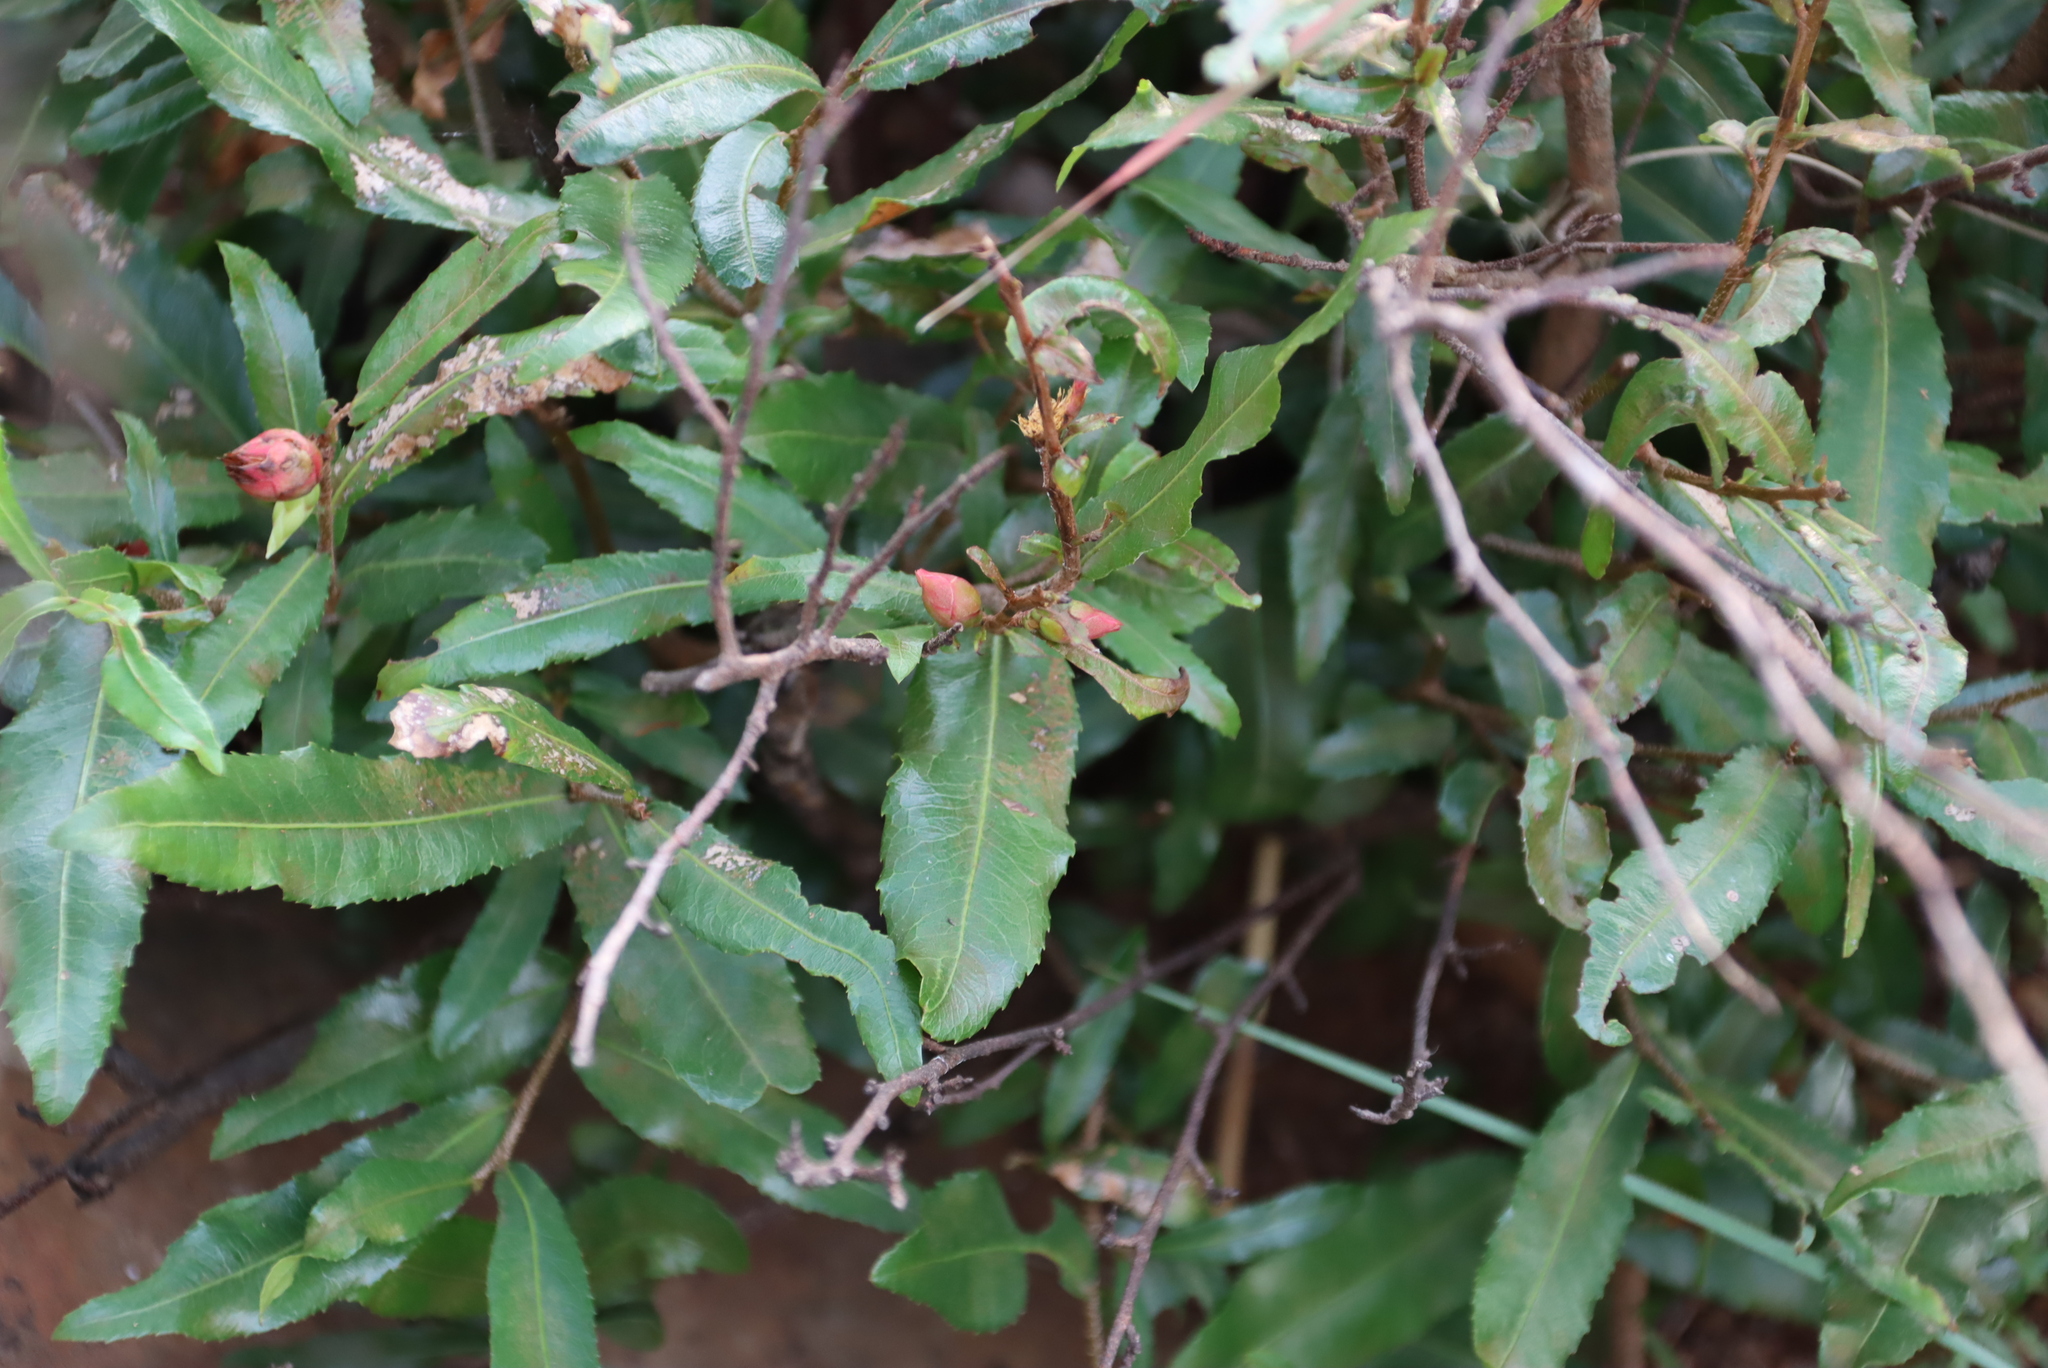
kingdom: Plantae
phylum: Tracheophyta
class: Magnoliopsida
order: Malpighiales
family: Ochnaceae
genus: Ochna
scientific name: Ochna serrulata
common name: Mickey mouse plant
